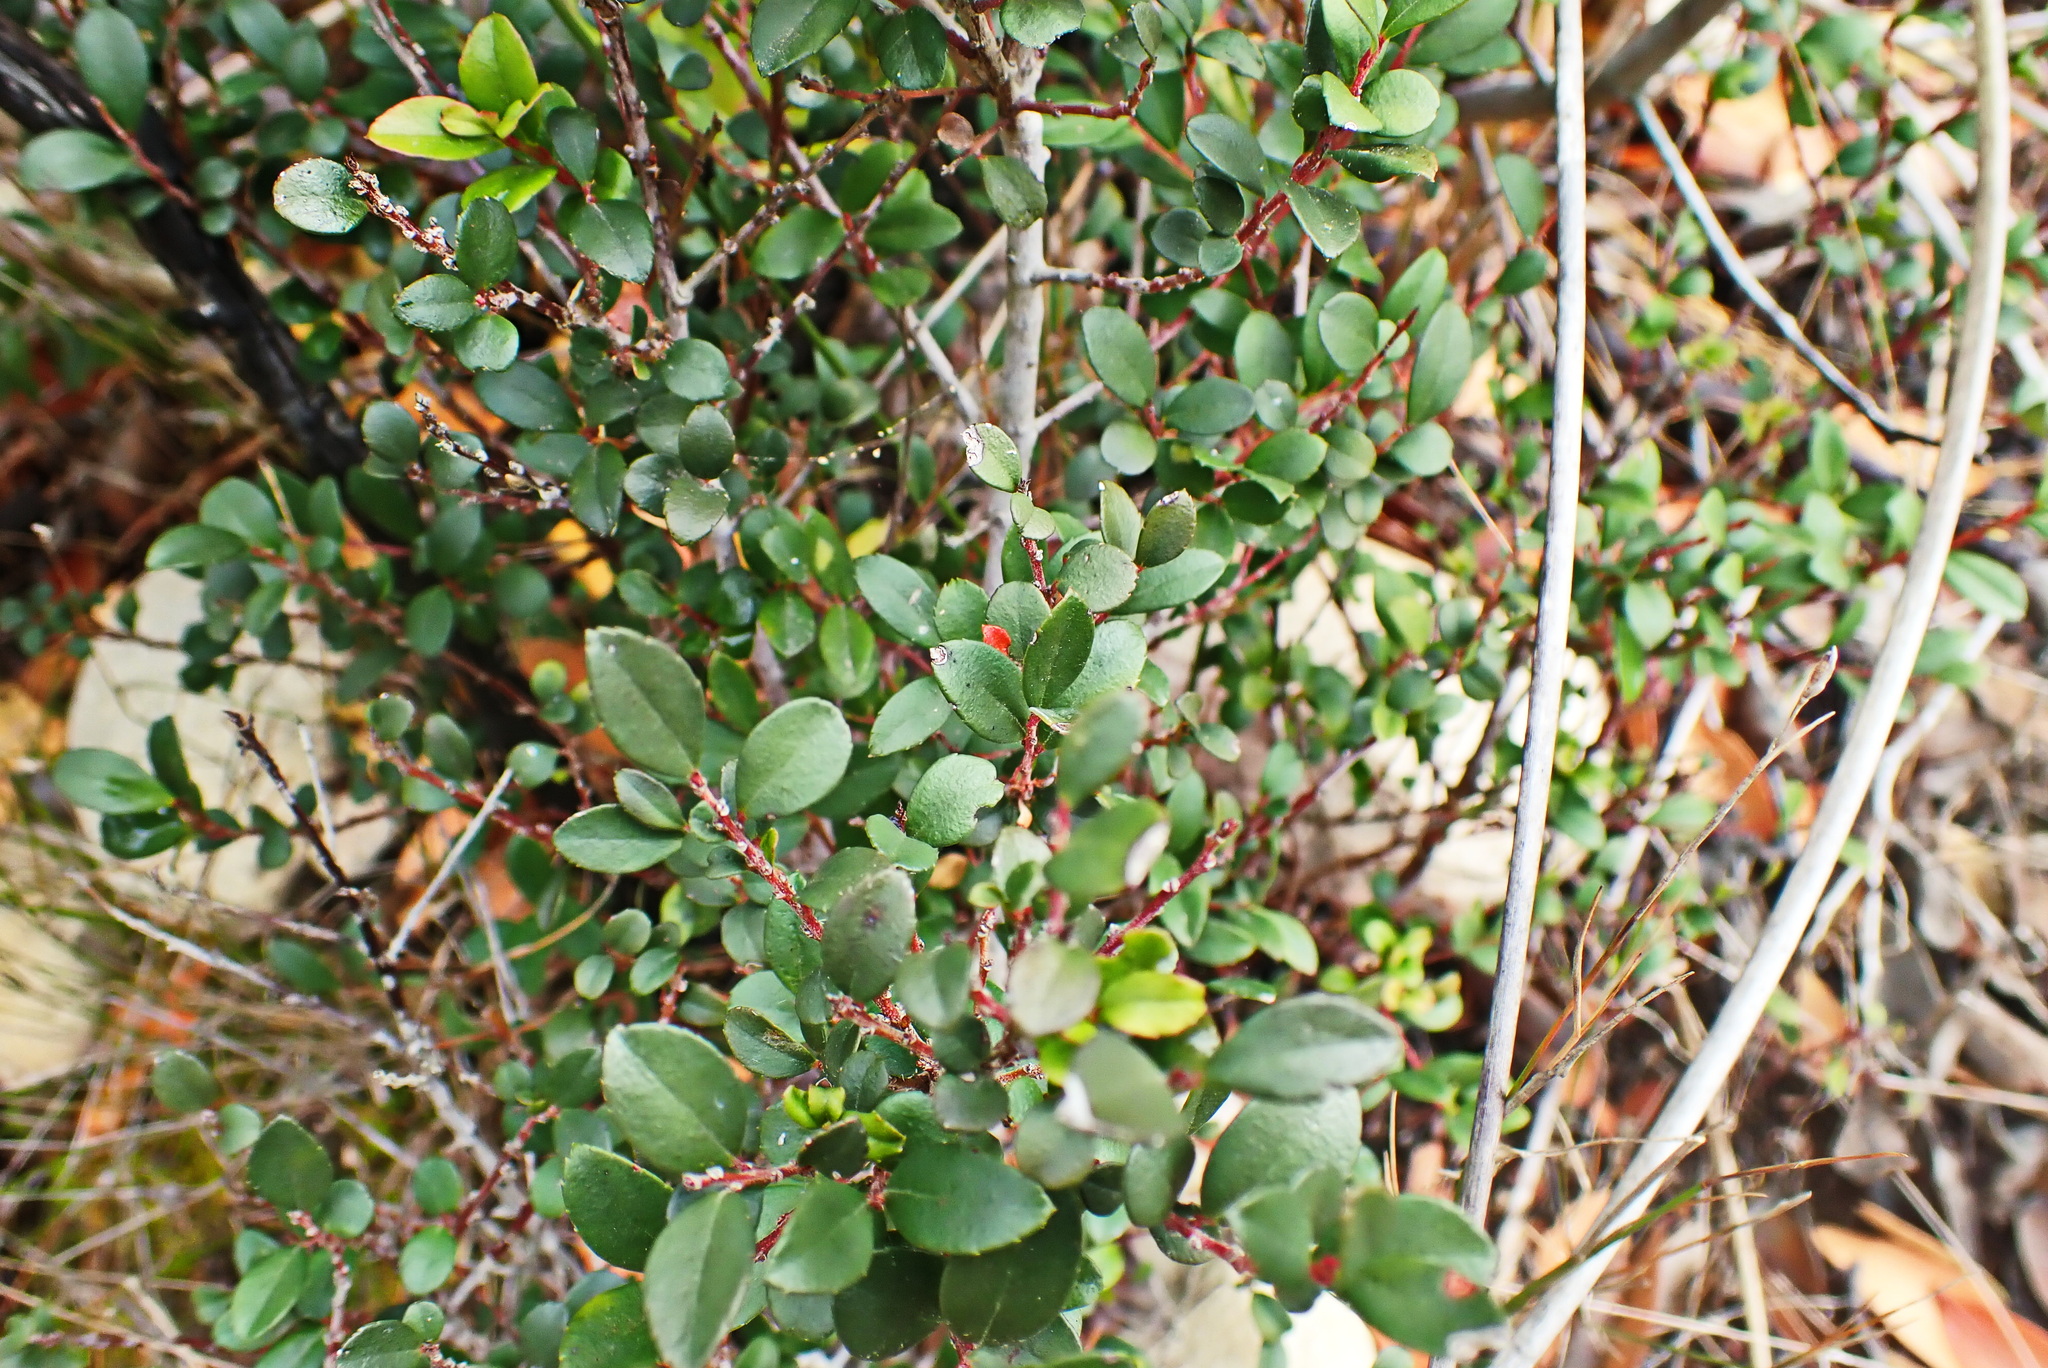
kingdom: Plantae
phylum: Tracheophyta
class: Magnoliopsida
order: Ericales
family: Primulaceae
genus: Myrsine
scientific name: Myrsine africana
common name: African-boxwood
